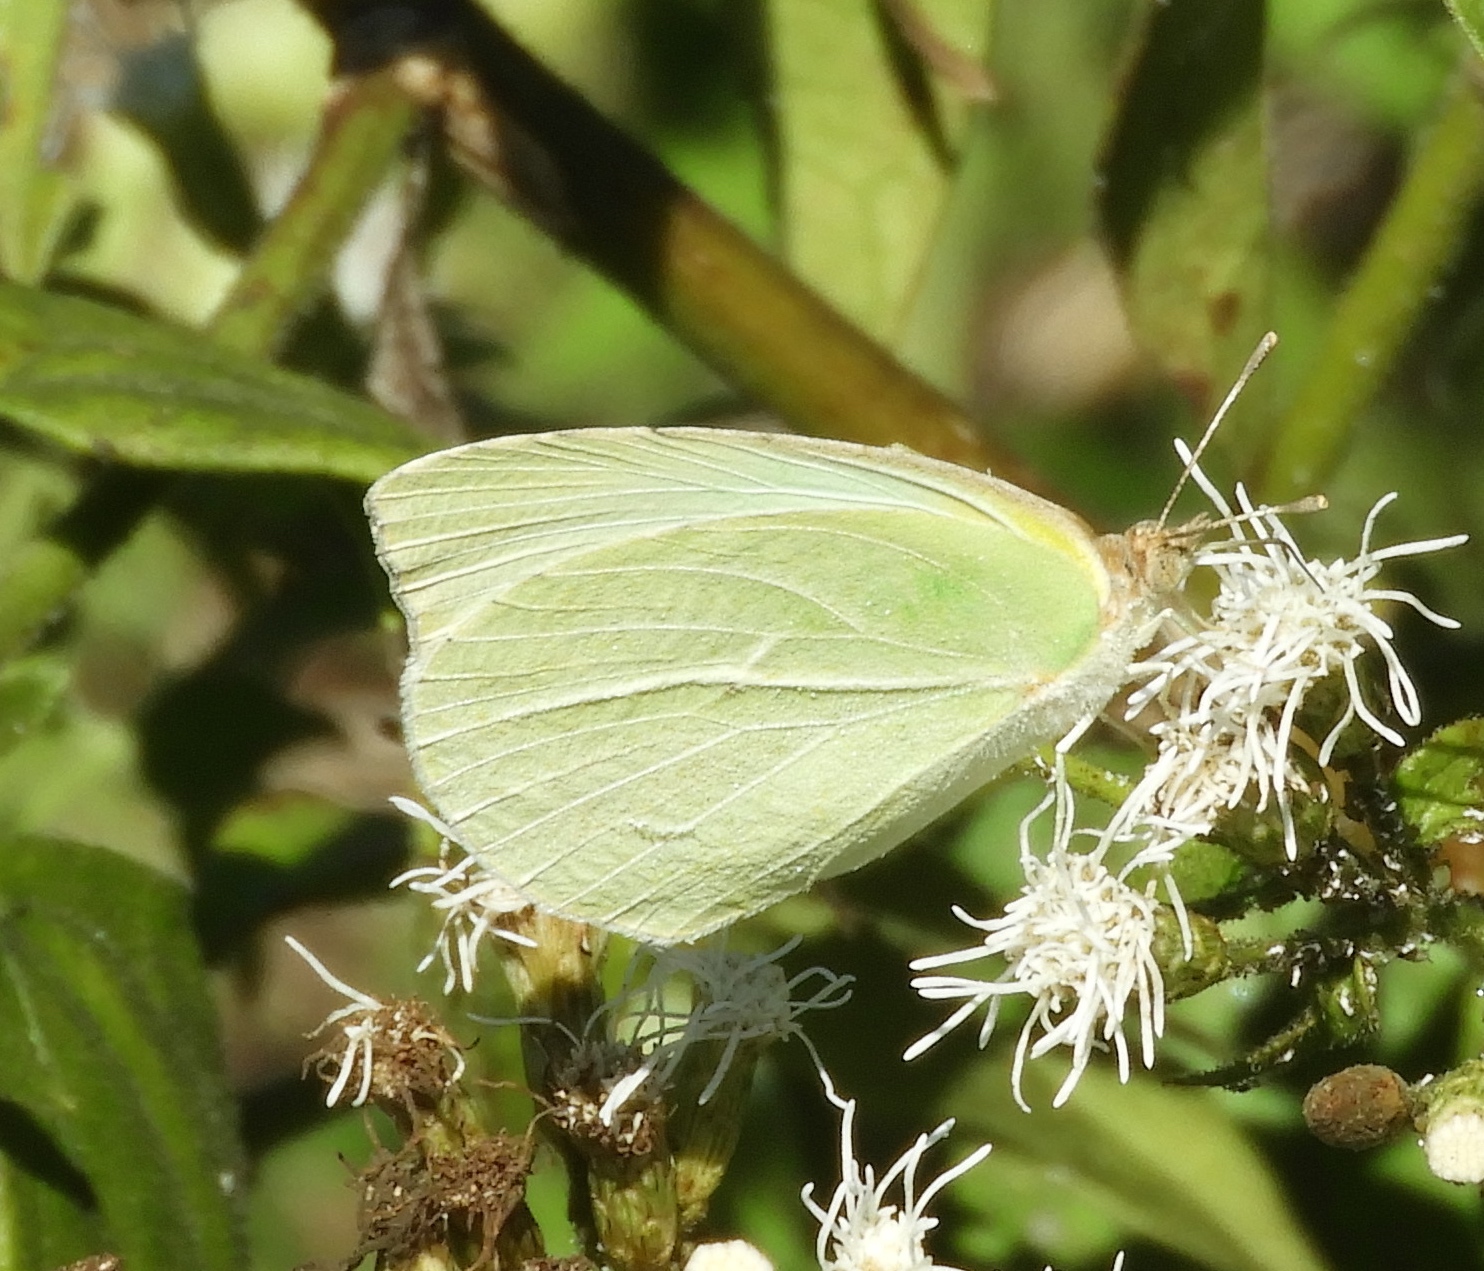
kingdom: Animalia
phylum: Arthropoda
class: Insecta
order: Lepidoptera
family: Pieridae
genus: Kricogonia
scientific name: Kricogonia lyside
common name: Guayacan sulphur,
